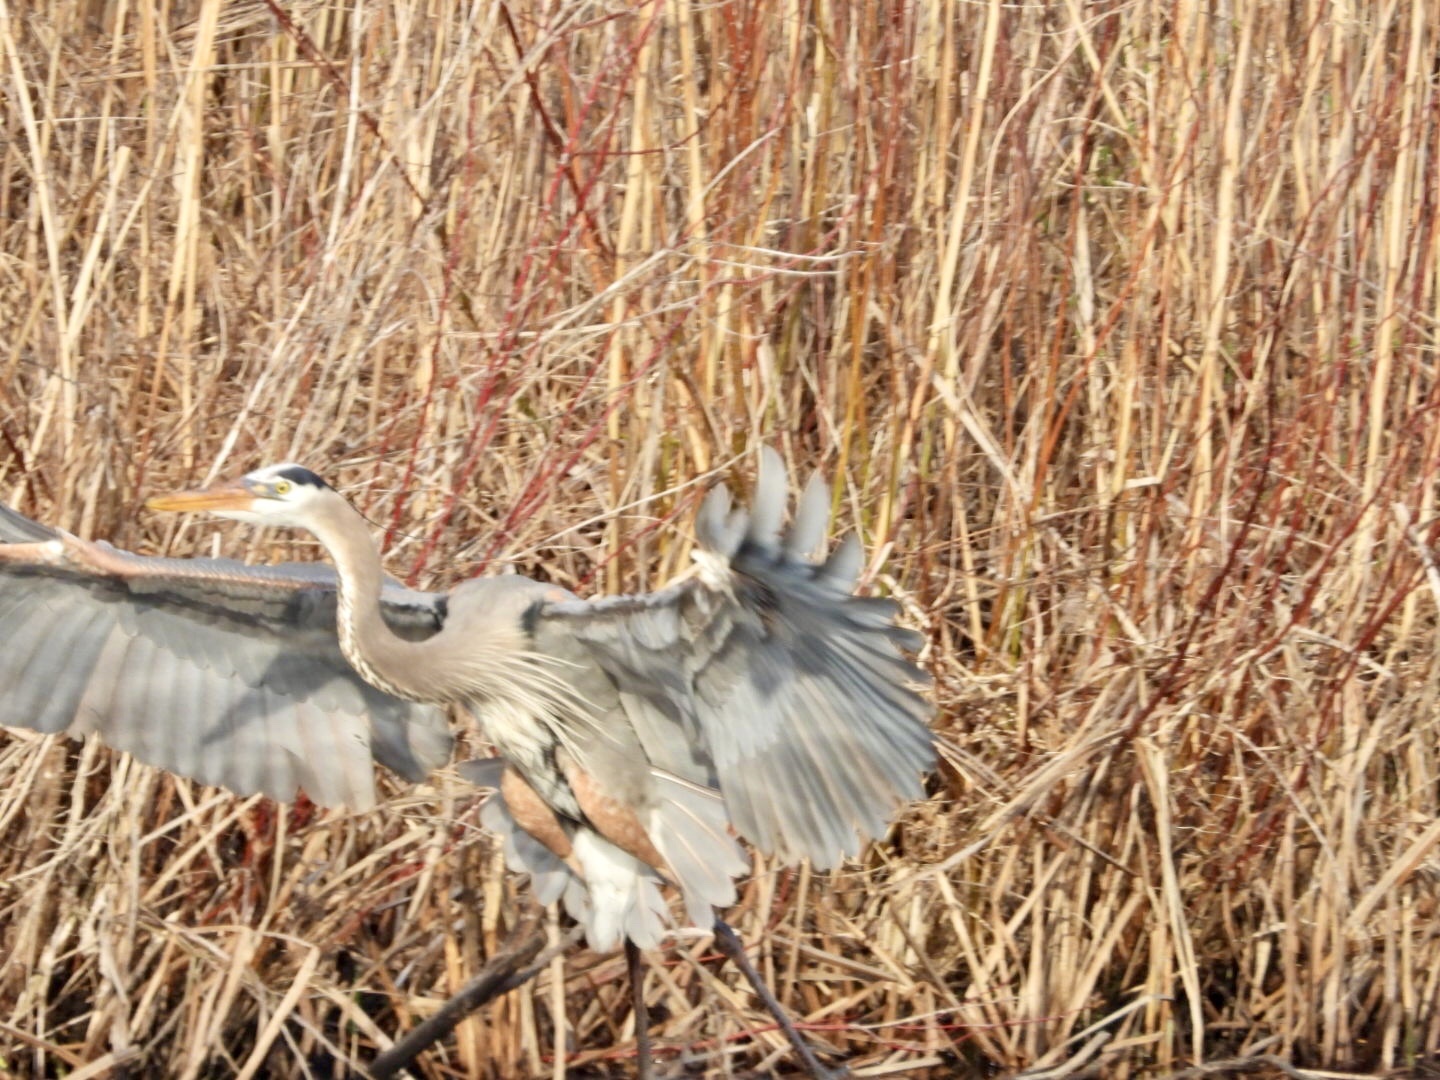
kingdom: Animalia
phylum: Chordata
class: Aves
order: Pelecaniformes
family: Ardeidae
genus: Ardea
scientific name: Ardea herodias
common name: Great blue heron
